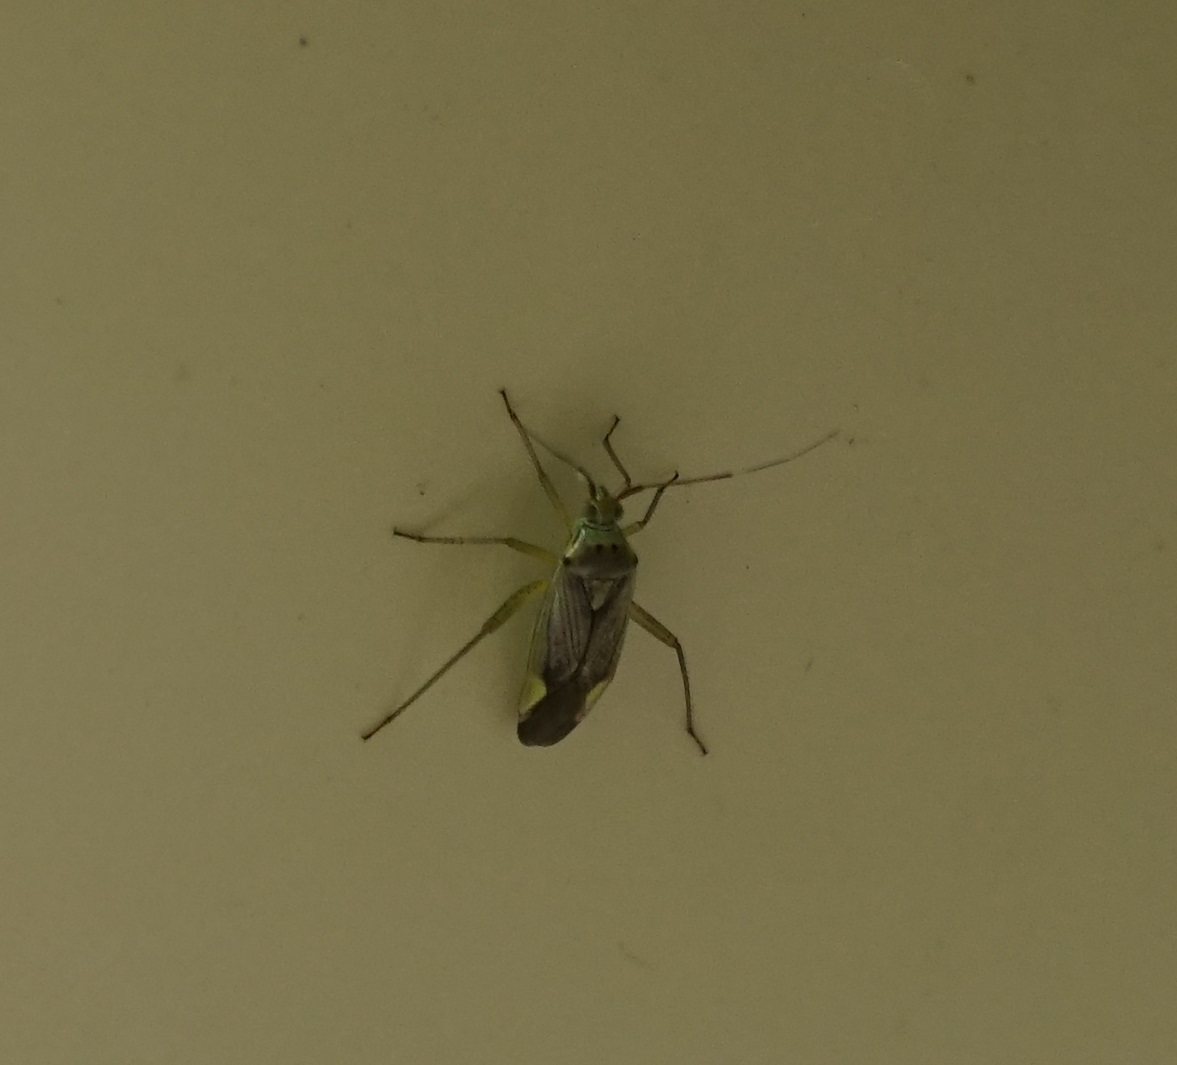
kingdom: Animalia
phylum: Arthropoda
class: Insecta
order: Hemiptera
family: Miridae
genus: Closterotomus
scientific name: Closterotomus trivialis
